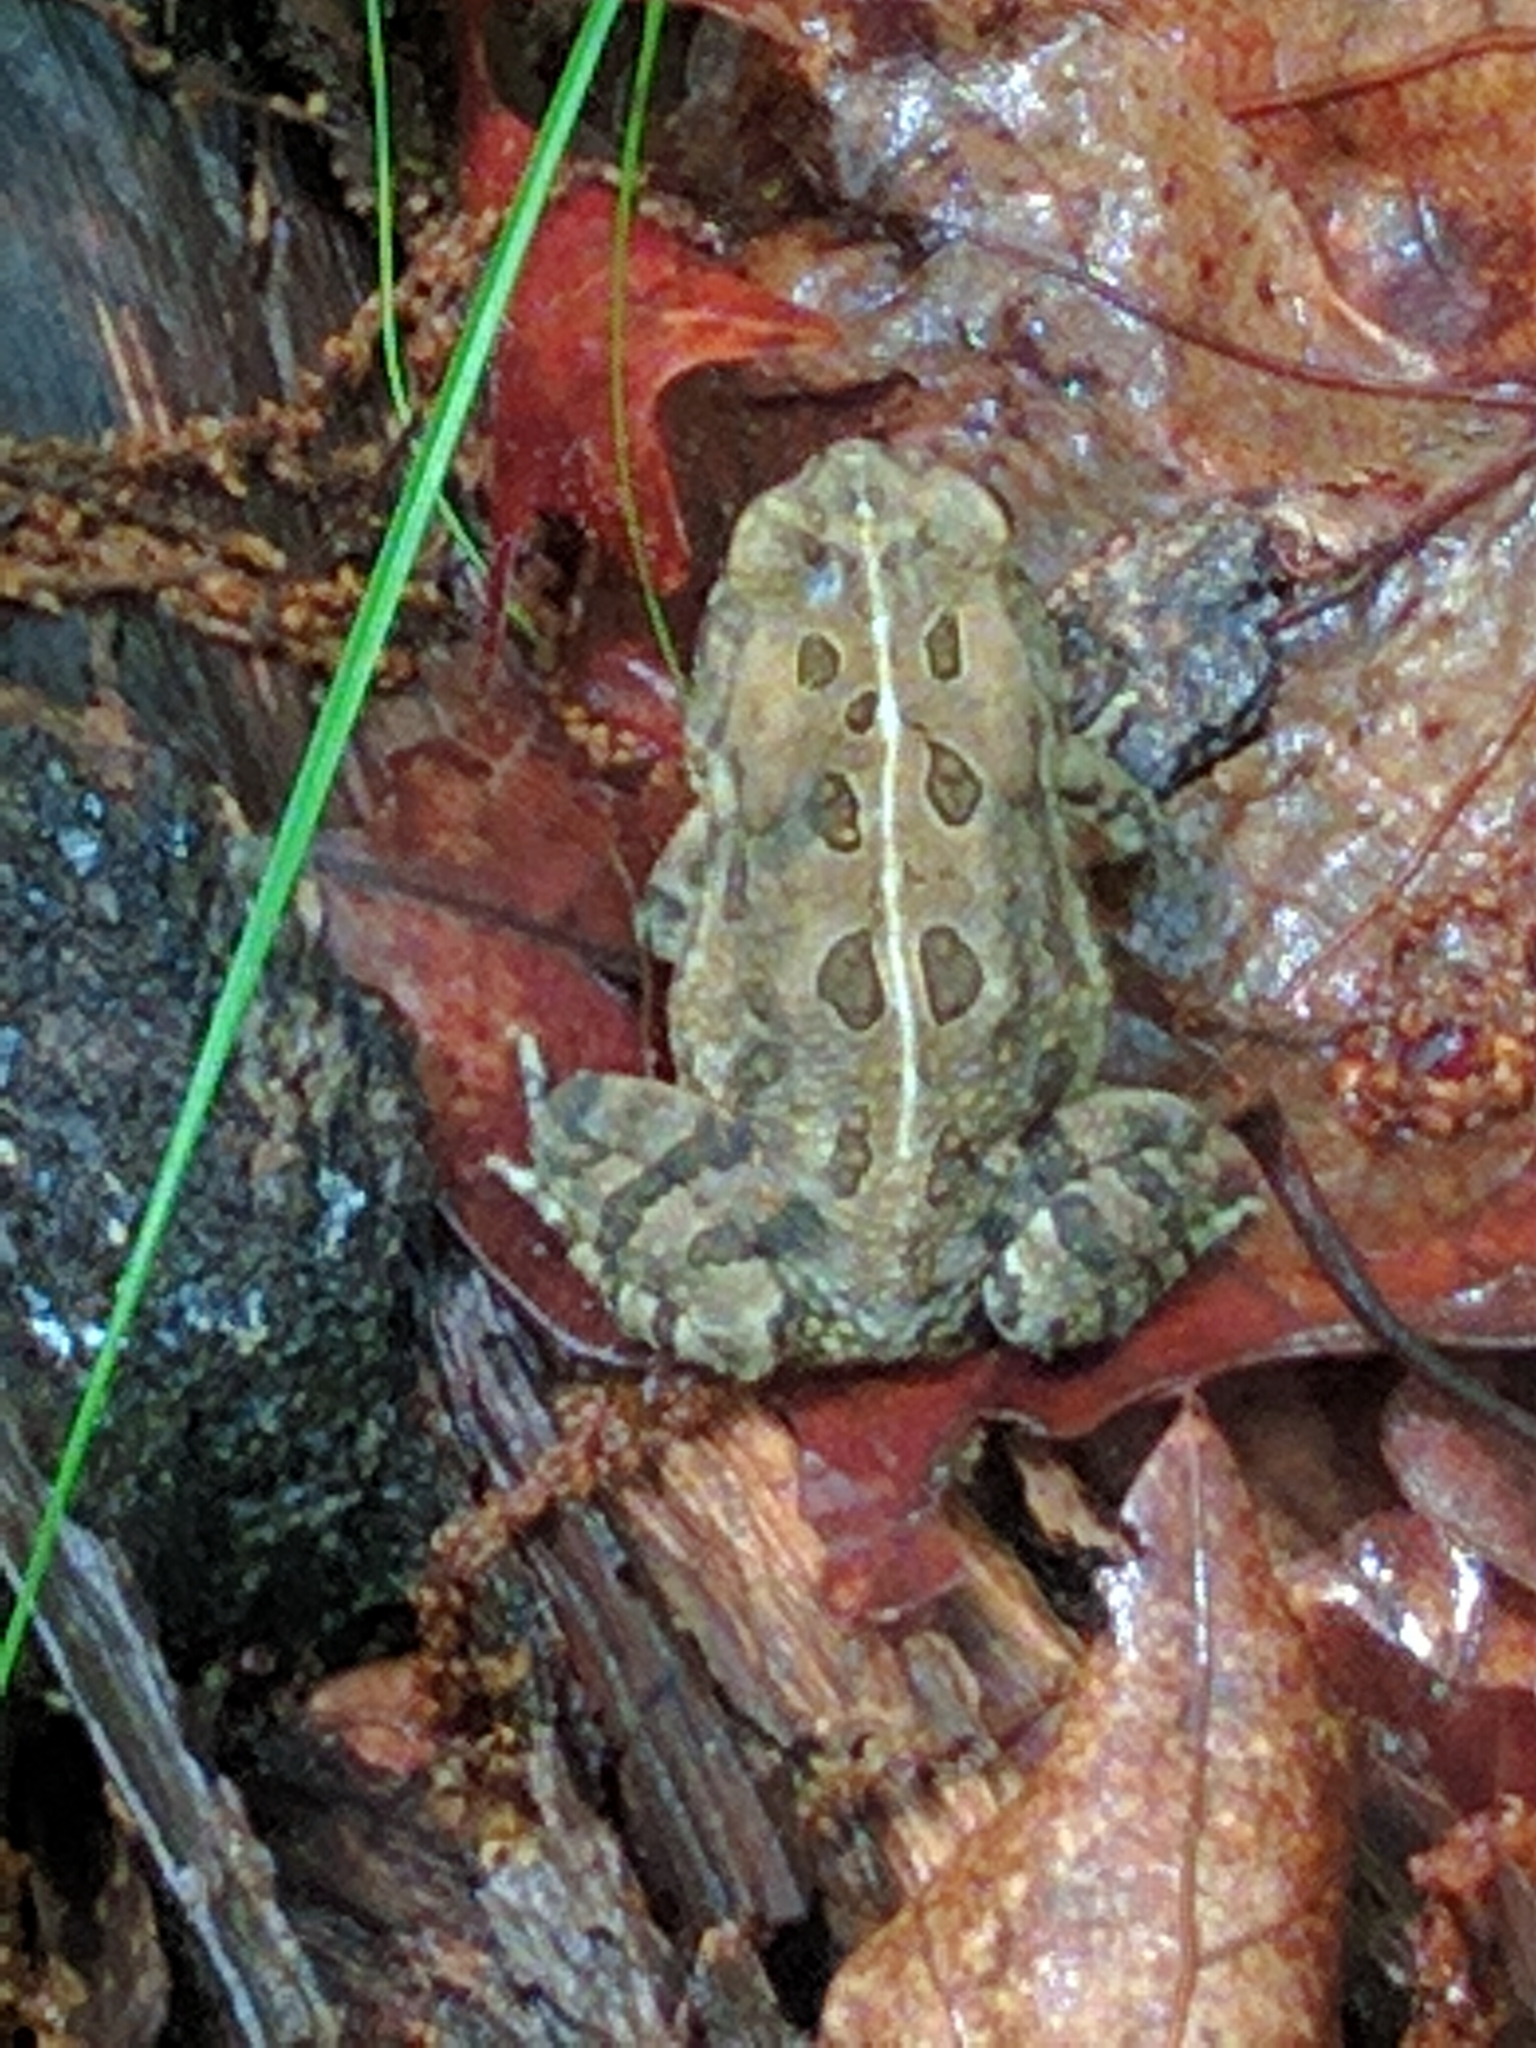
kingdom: Animalia
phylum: Chordata
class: Amphibia
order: Anura
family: Bufonidae
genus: Anaxyrus
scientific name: Anaxyrus fowleri
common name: Fowler's toad
